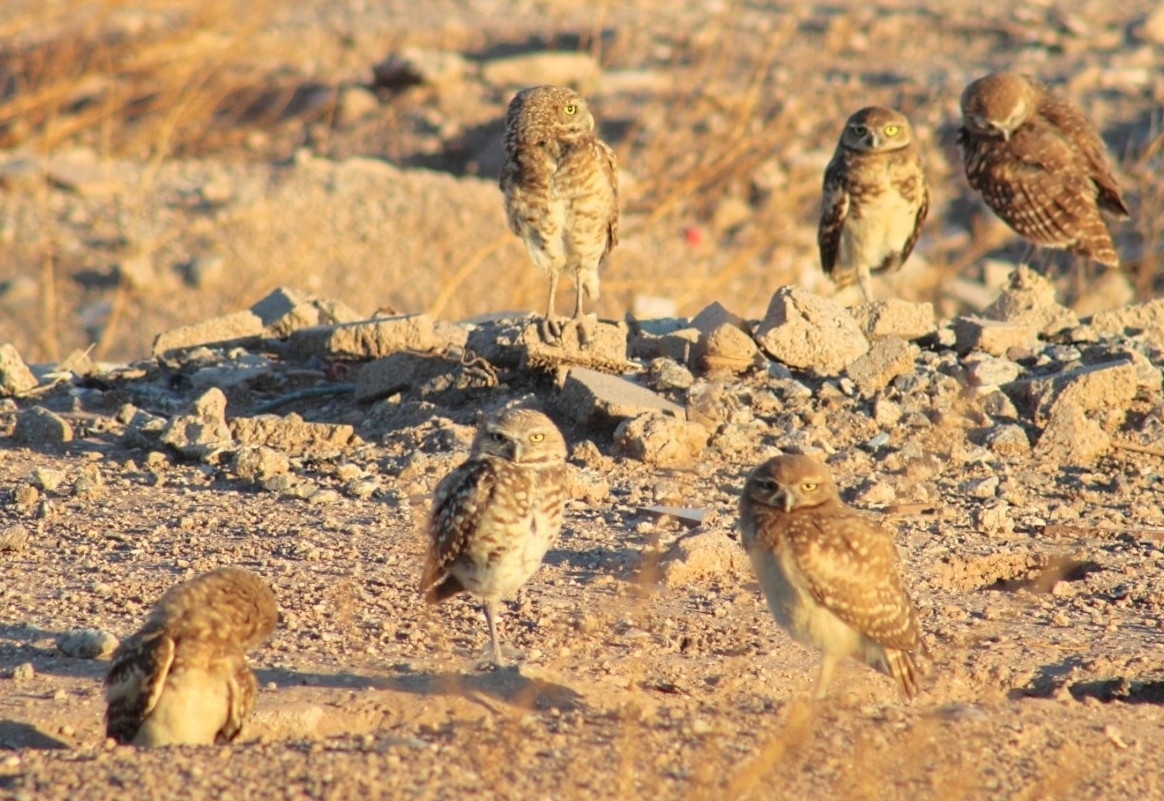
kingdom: Animalia
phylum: Chordata
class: Aves
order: Strigiformes
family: Strigidae
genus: Athene
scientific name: Athene cunicularia
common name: Burrowing owl
